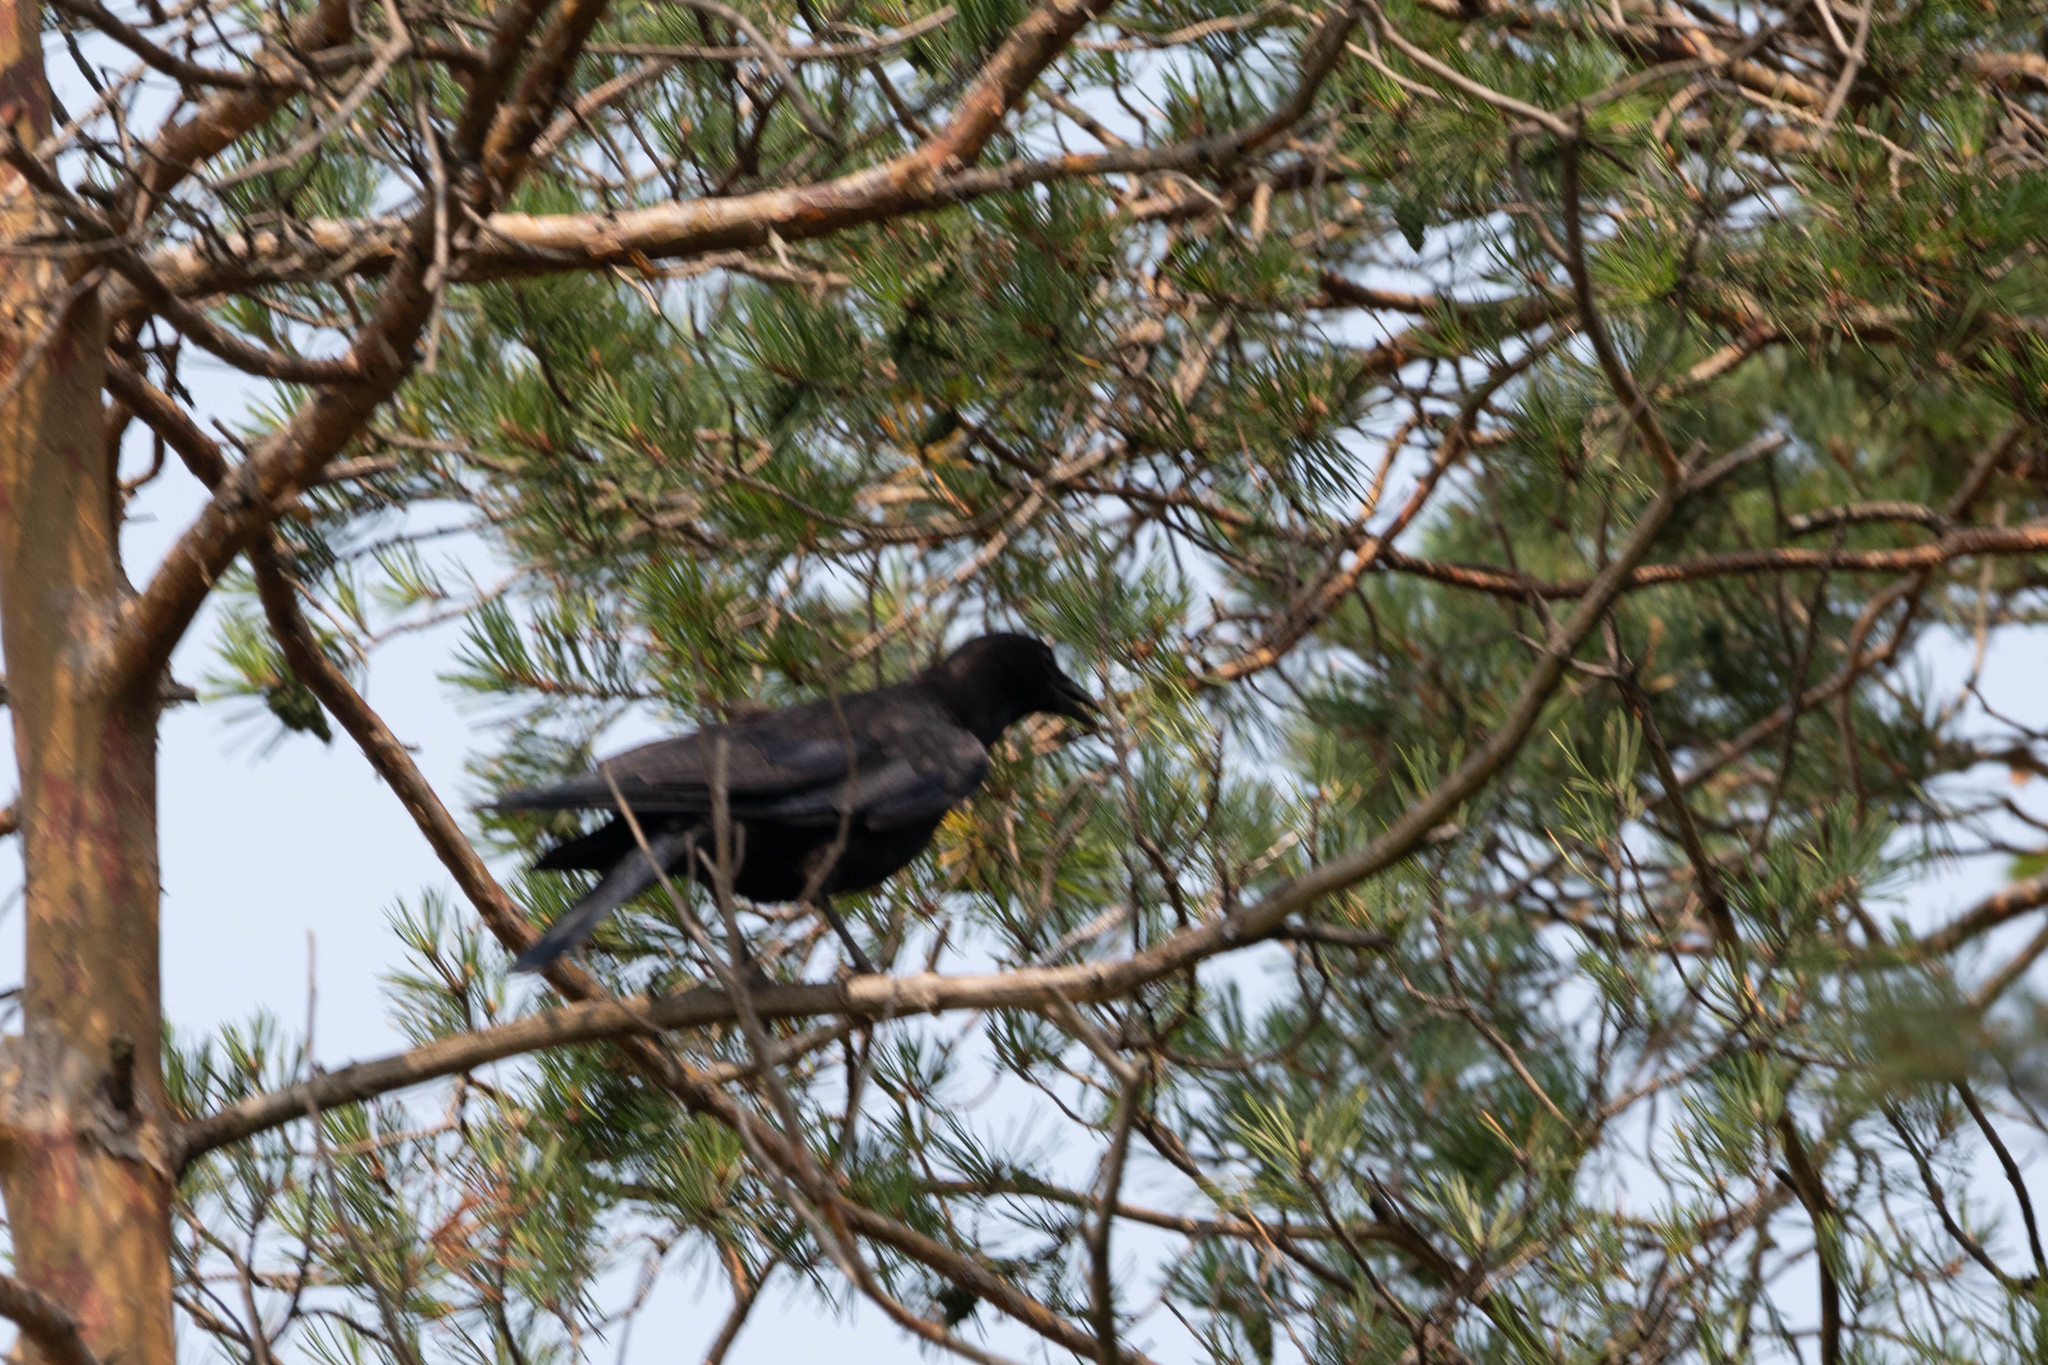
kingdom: Animalia
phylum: Chordata
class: Aves
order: Passeriformes
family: Corvidae
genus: Corvus
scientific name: Corvus brachyrhynchos
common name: American crow
